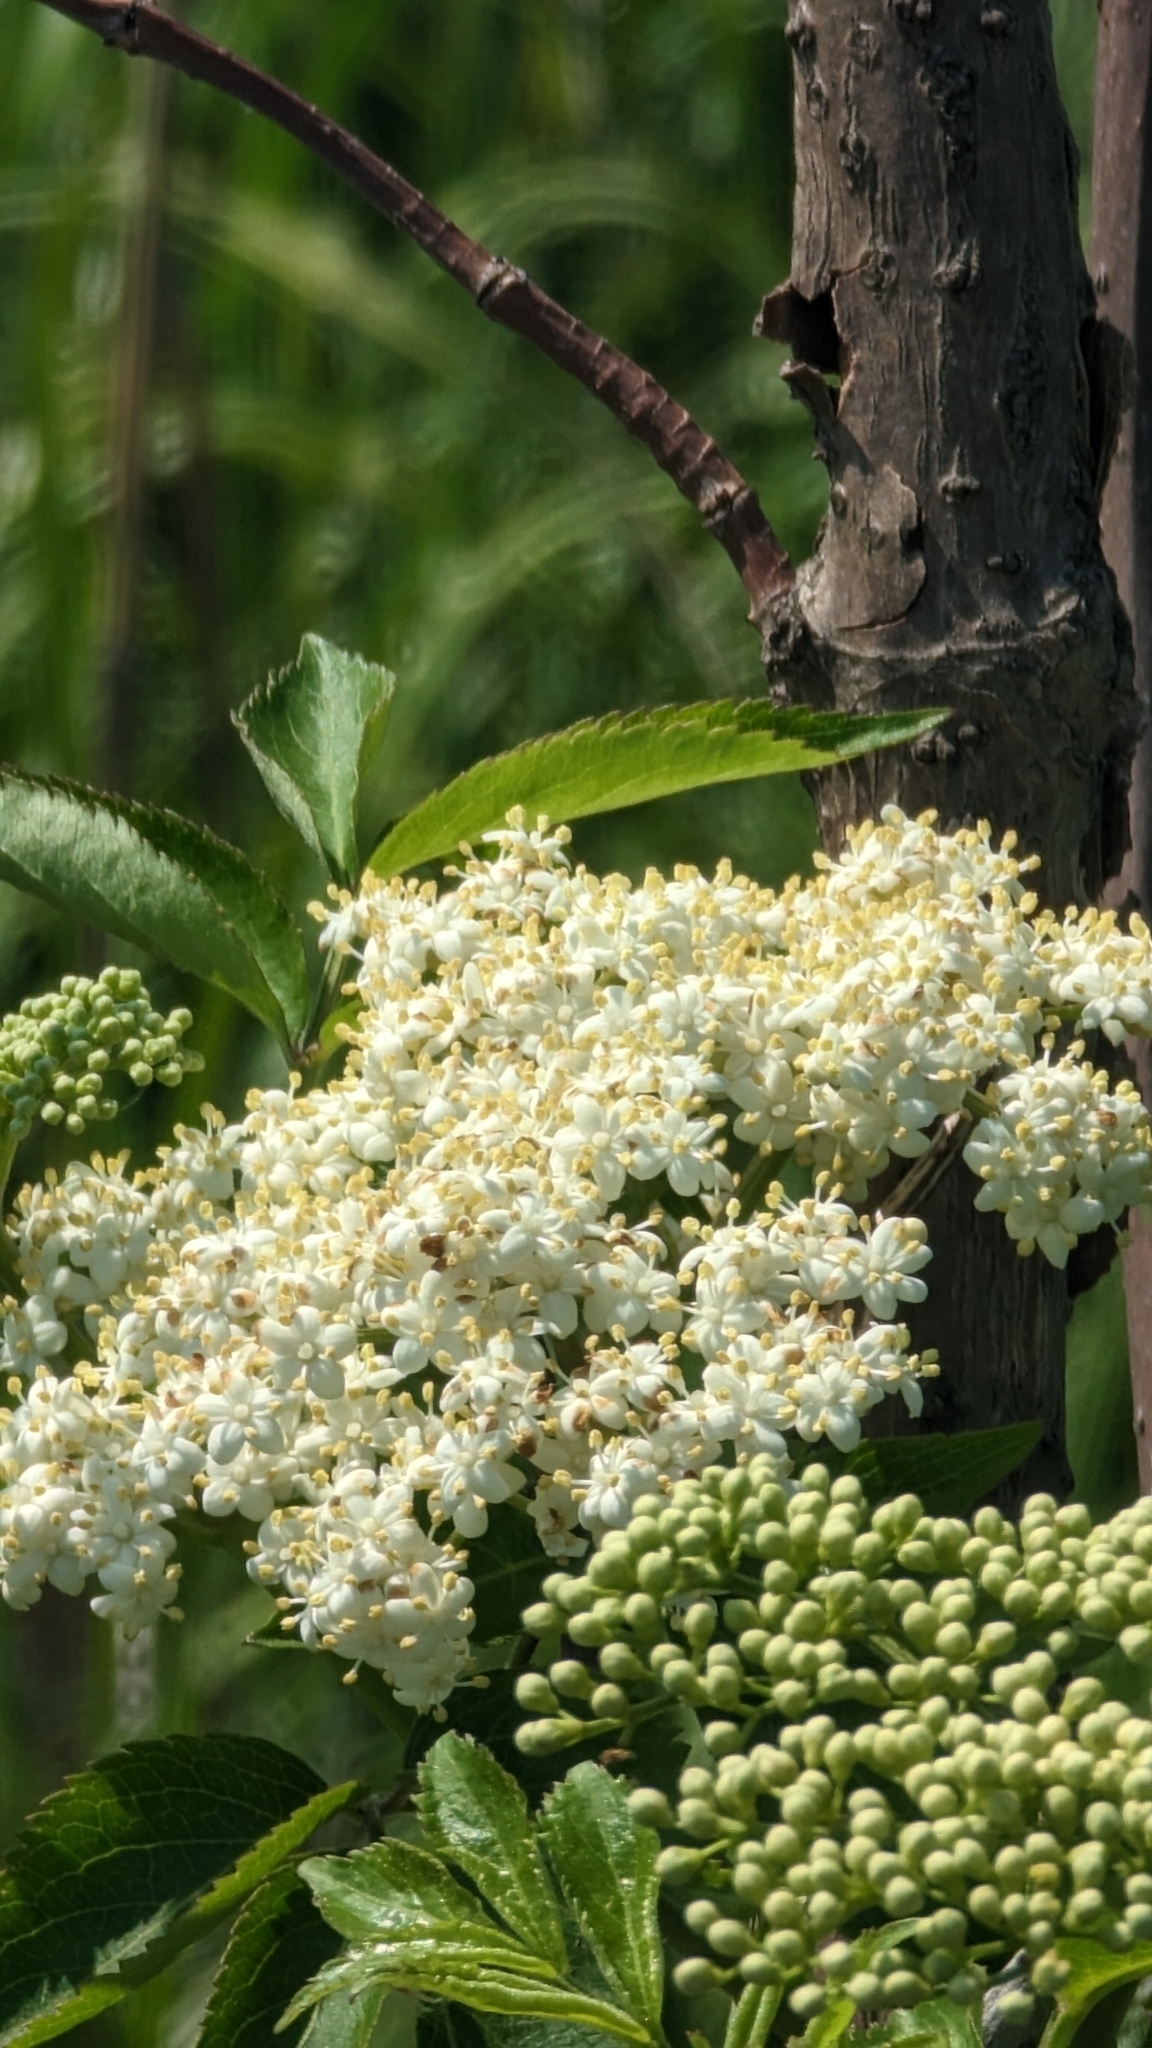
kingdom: Plantae
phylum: Tracheophyta
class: Magnoliopsida
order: Dipsacales
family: Viburnaceae
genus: Sambucus
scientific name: Sambucus canadensis
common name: American elder
